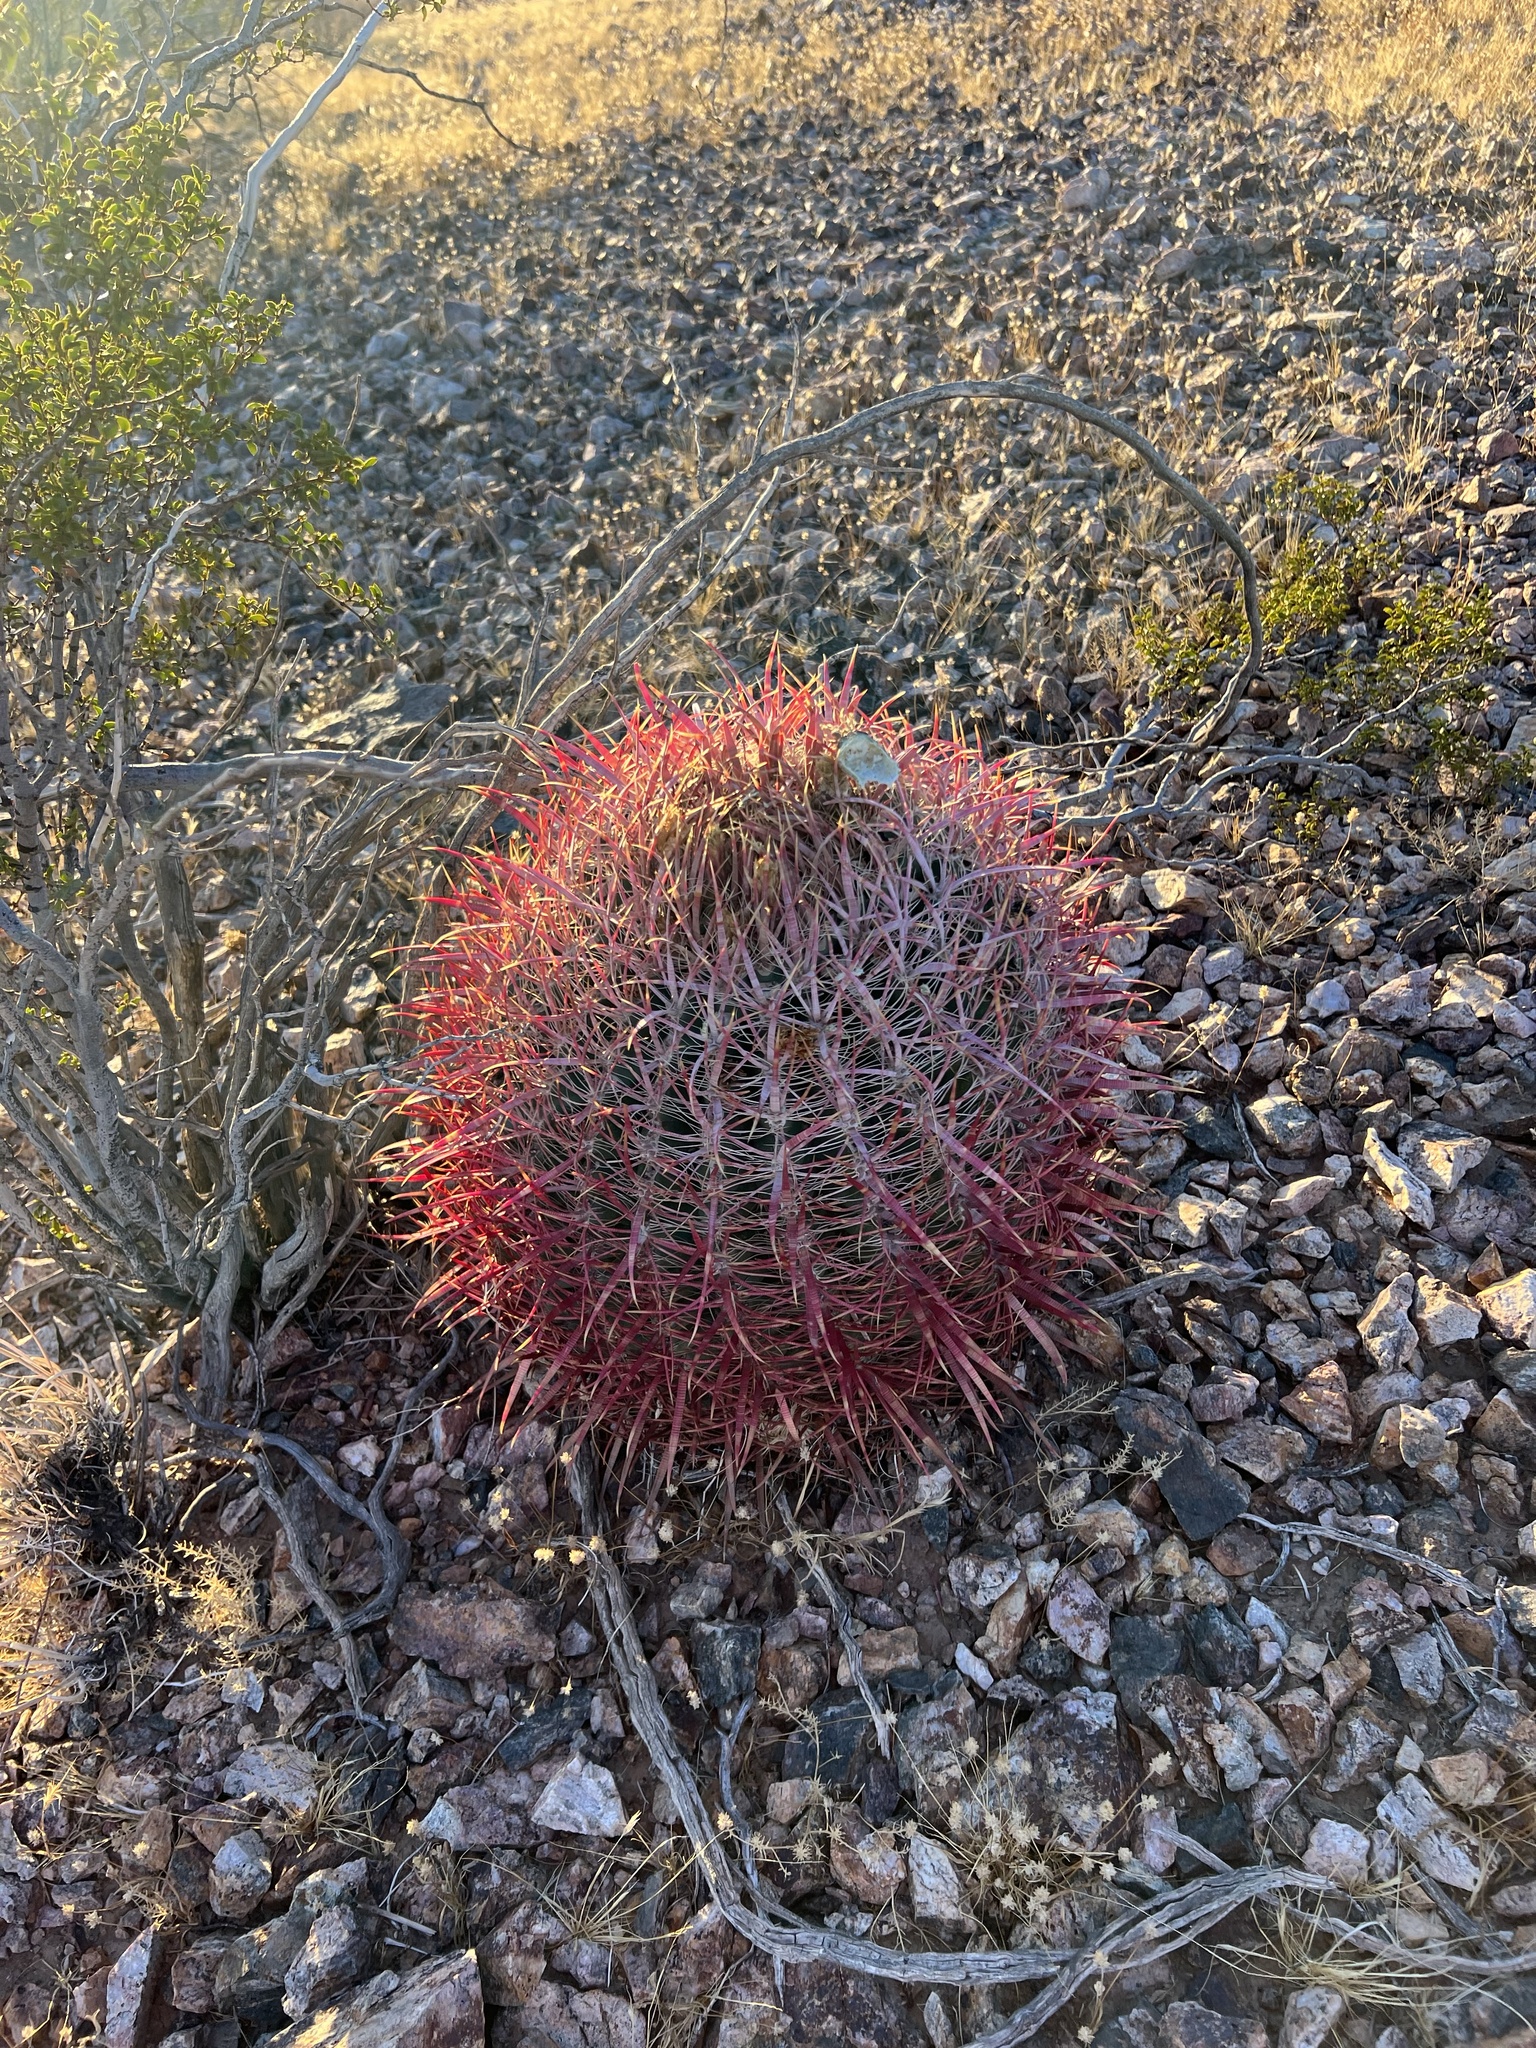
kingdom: Plantae
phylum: Tracheophyta
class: Magnoliopsida
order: Caryophyllales
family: Cactaceae
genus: Ferocactus
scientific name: Ferocactus cylindraceus
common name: California barrel cactus
